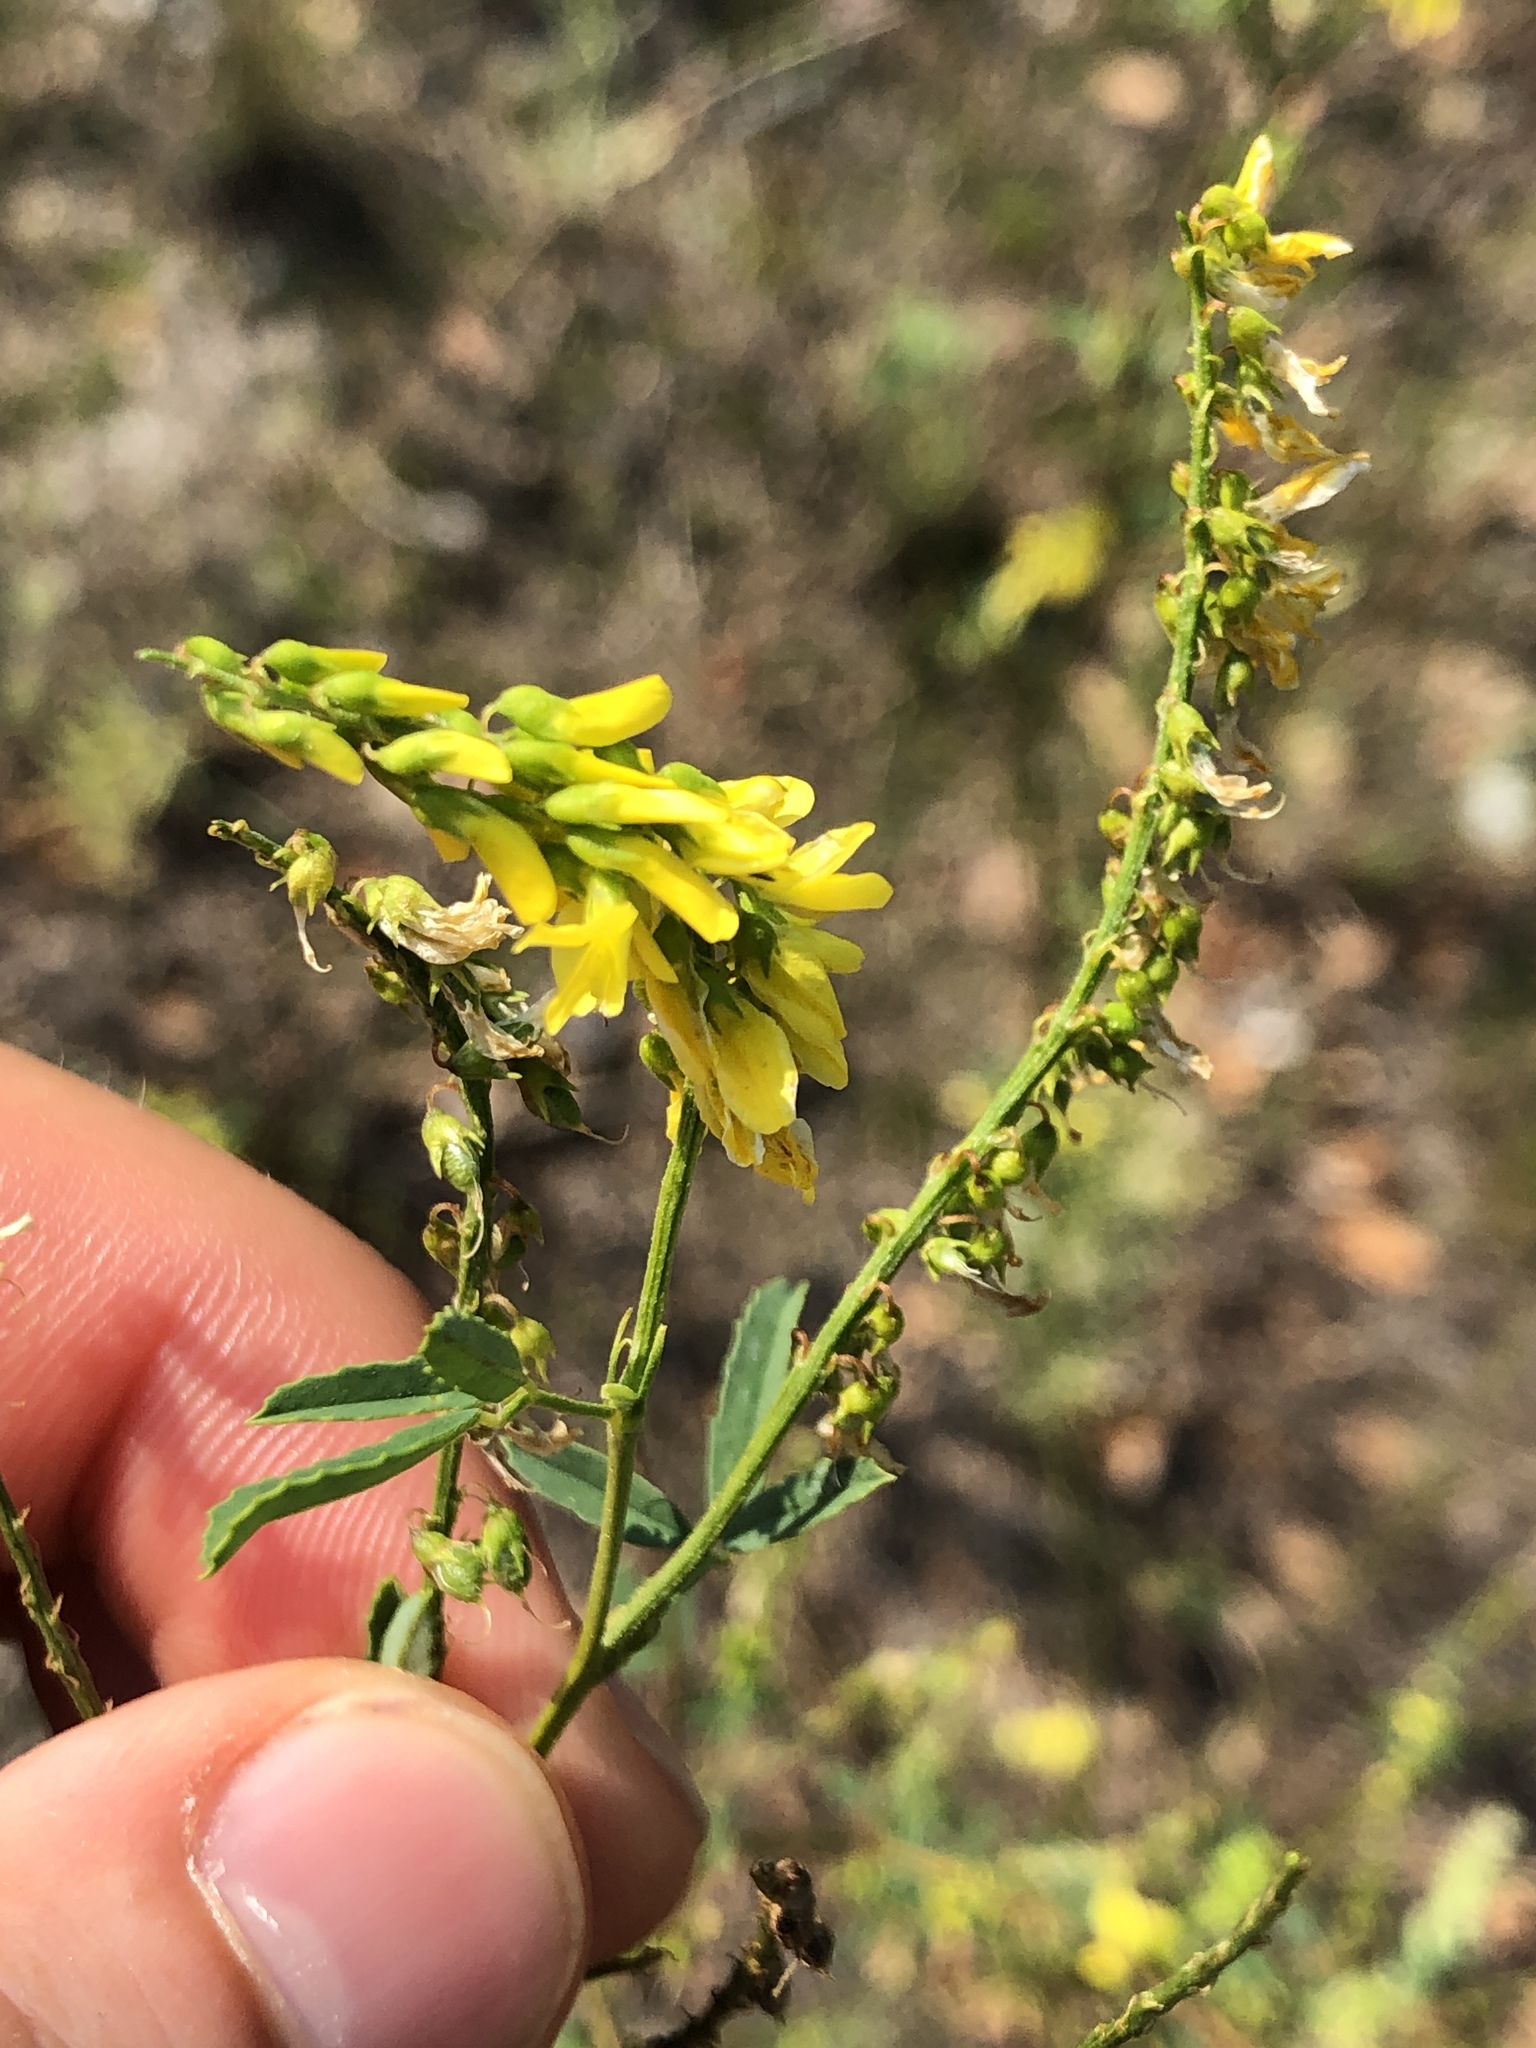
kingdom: Plantae
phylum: Tracheophyta
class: Magnoliopsida
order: Fabales
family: Fabaceae
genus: Melilotus
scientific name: Melilotus officinalis
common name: Sweetclover
